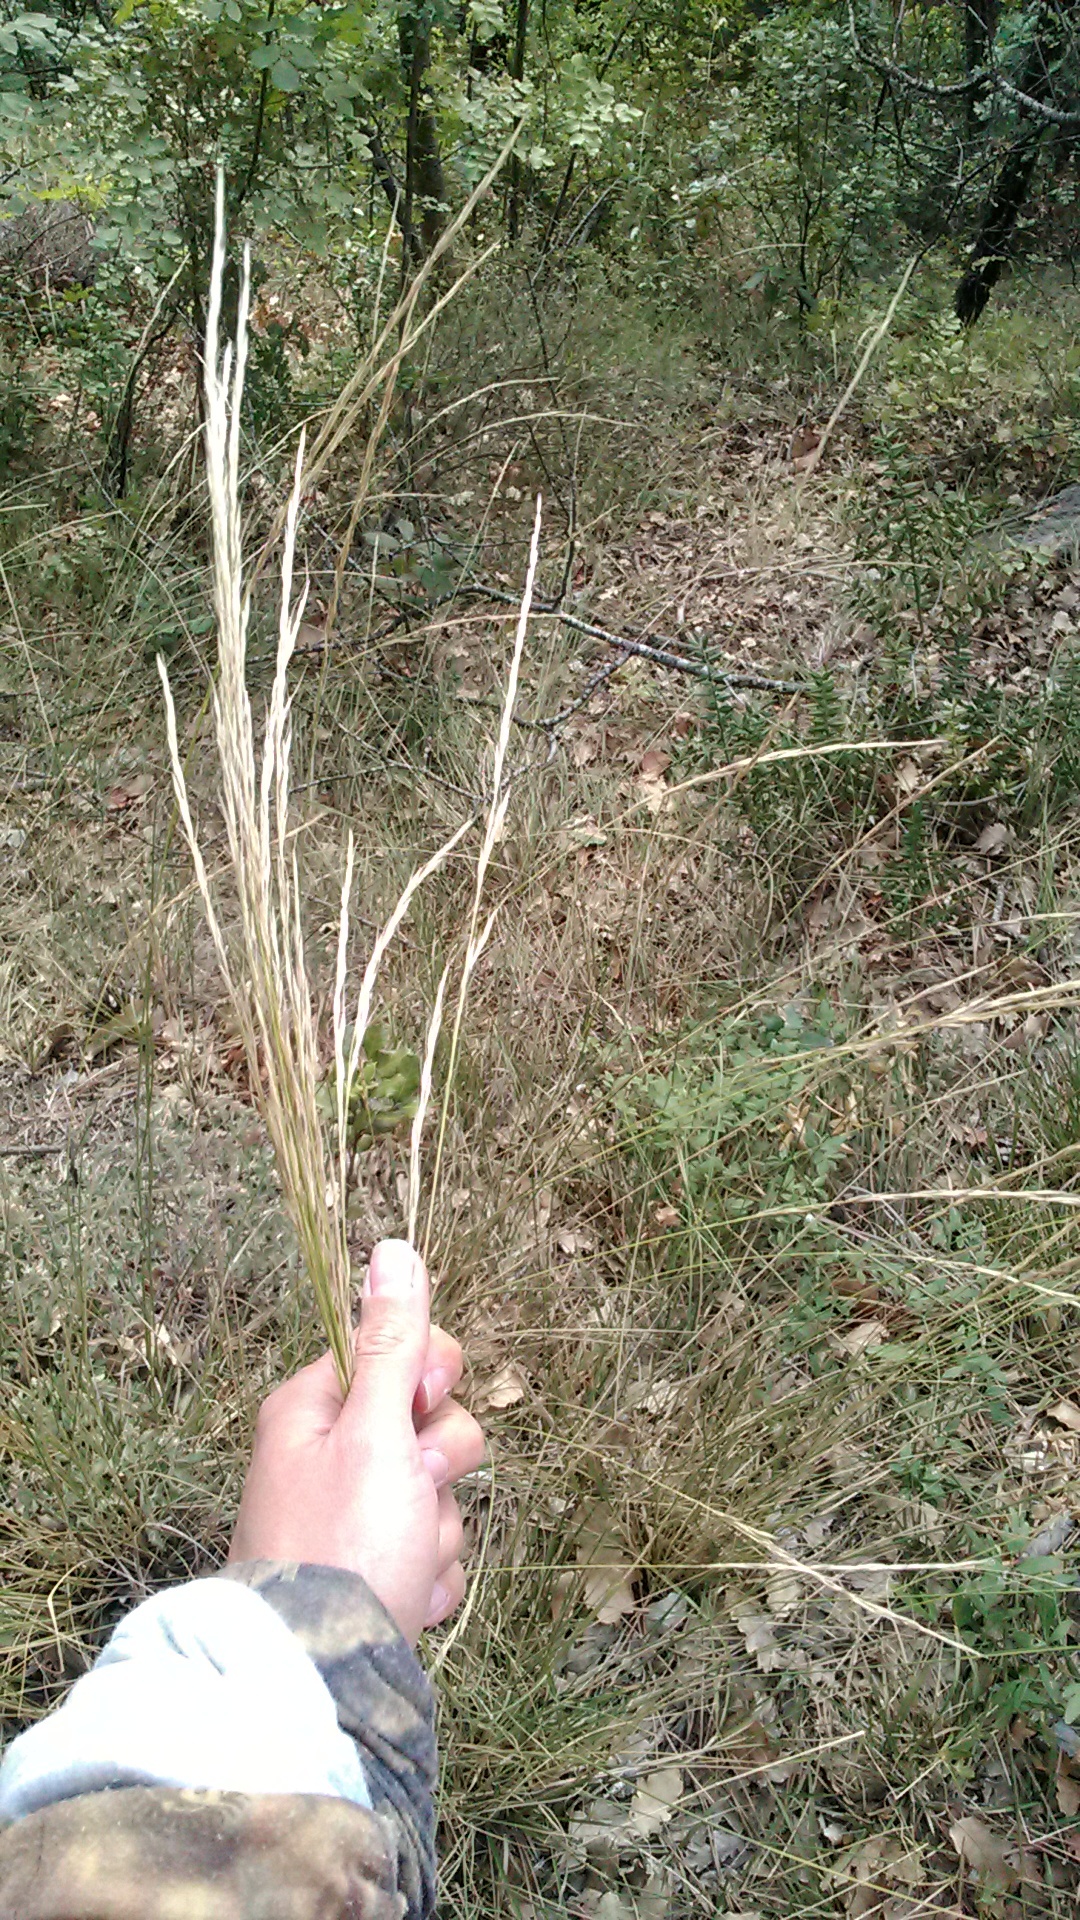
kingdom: Plantae
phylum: Tracheophyta
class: Liliopsida
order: Poales
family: Poaceae
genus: Achnatherum
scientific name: Achnatherum bromoides
